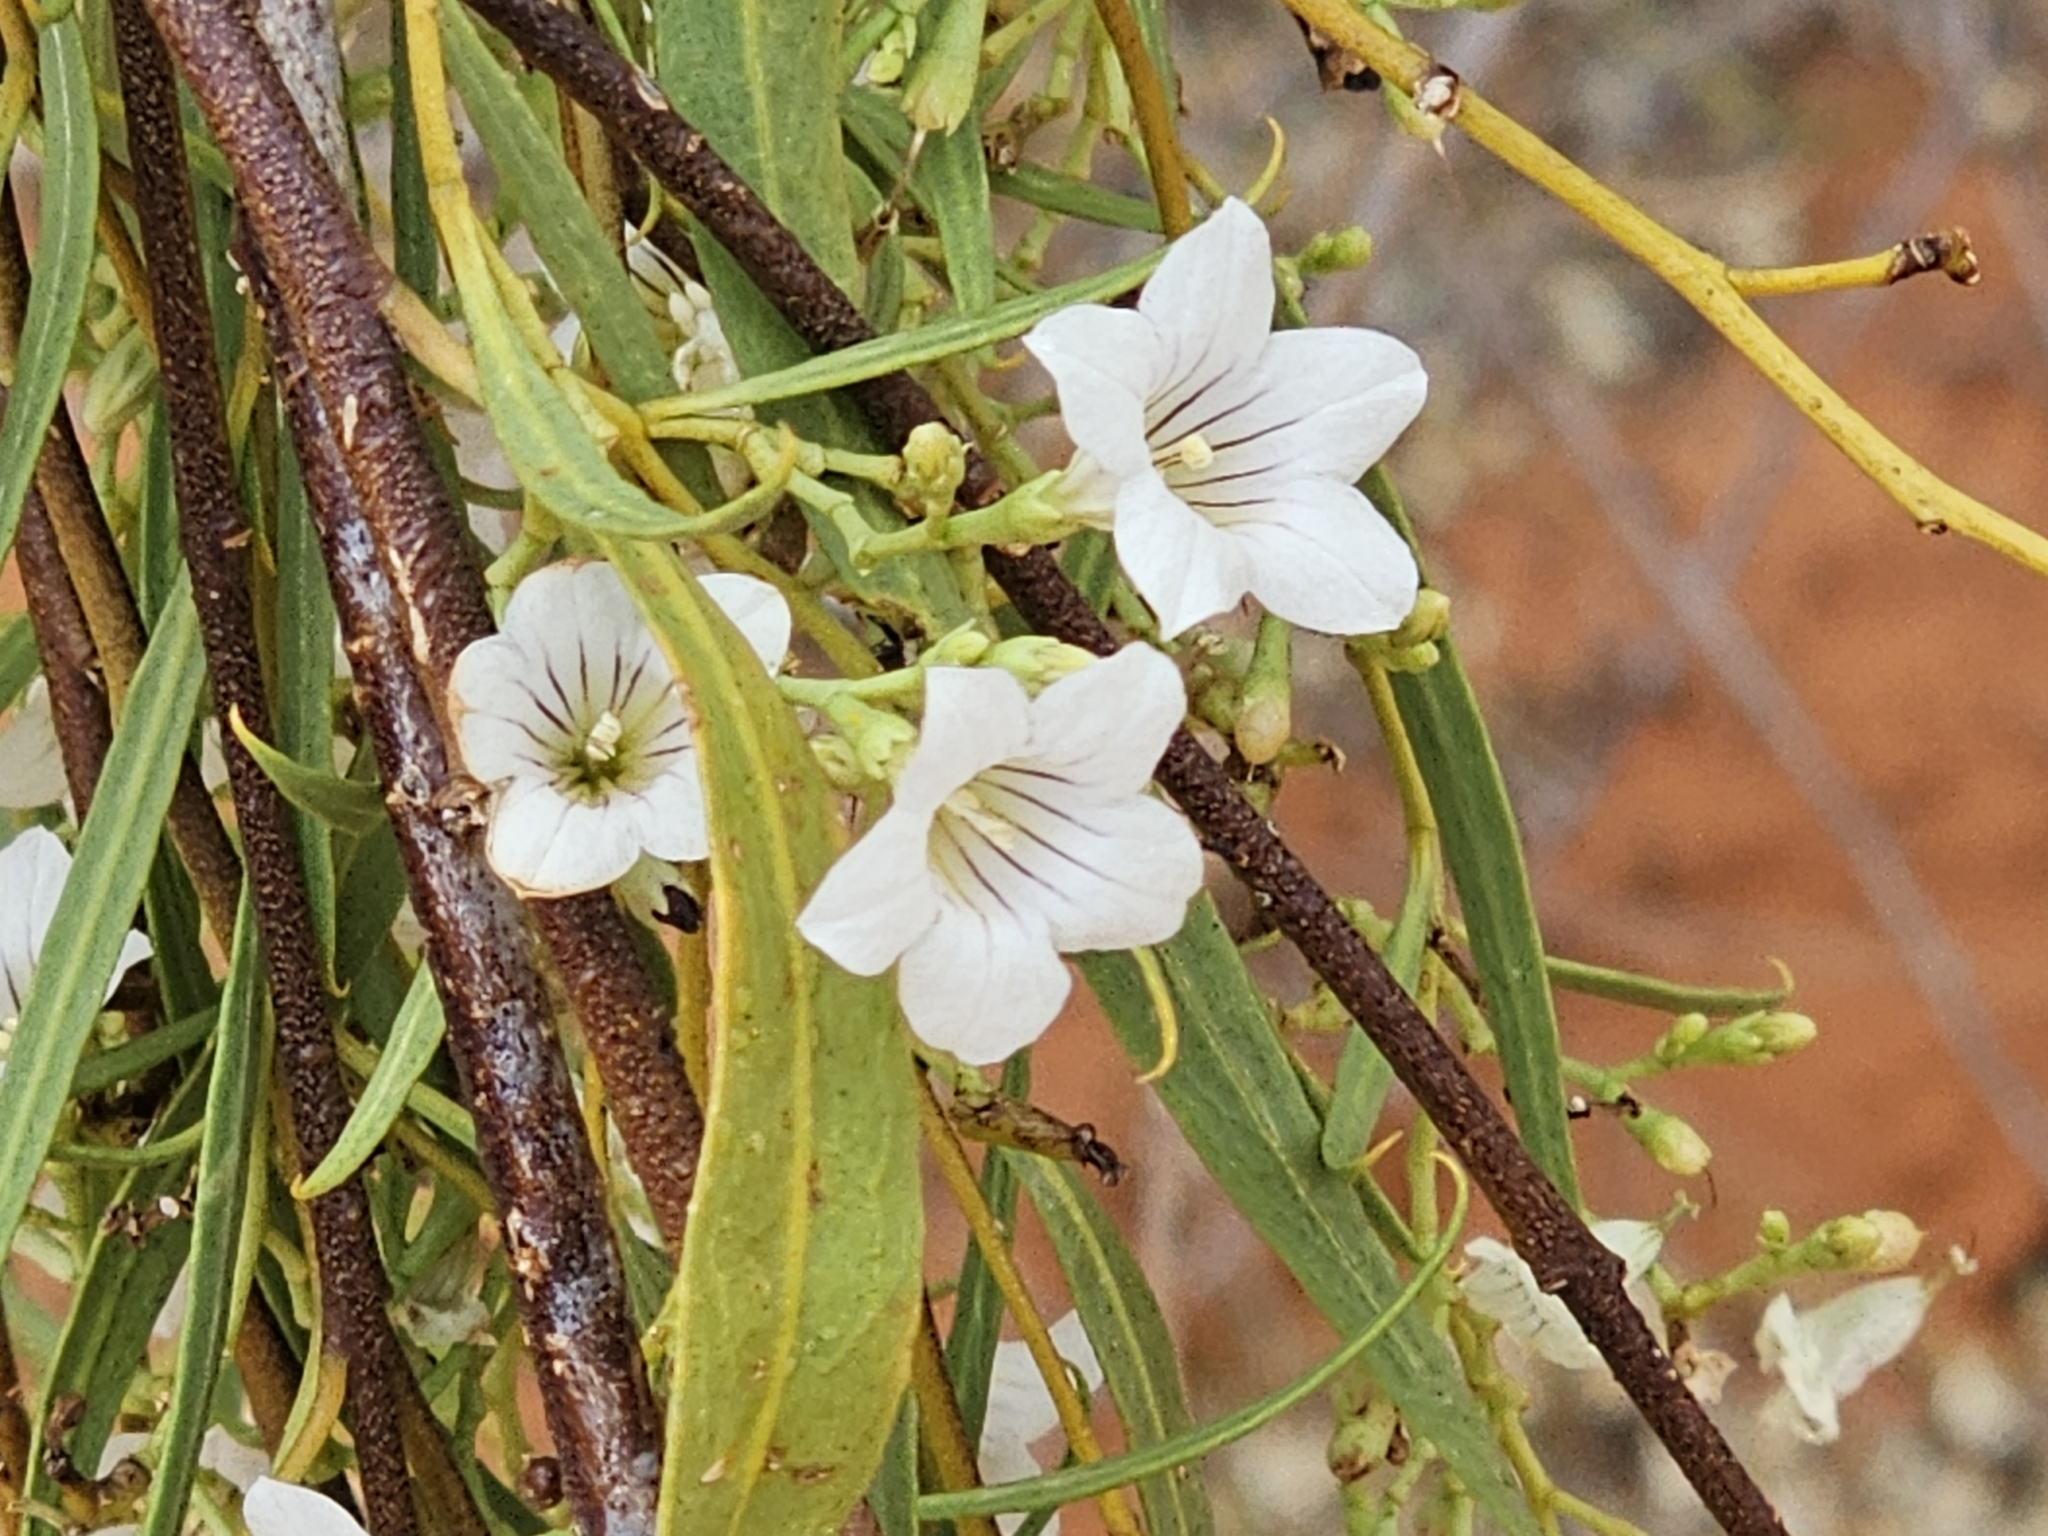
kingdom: Plantae
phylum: Tracheophyta
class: Magnoliopsida
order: Solanales
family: Solanaceae
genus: Duboisia
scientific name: Duboisia hopwoodii
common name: Pituri
